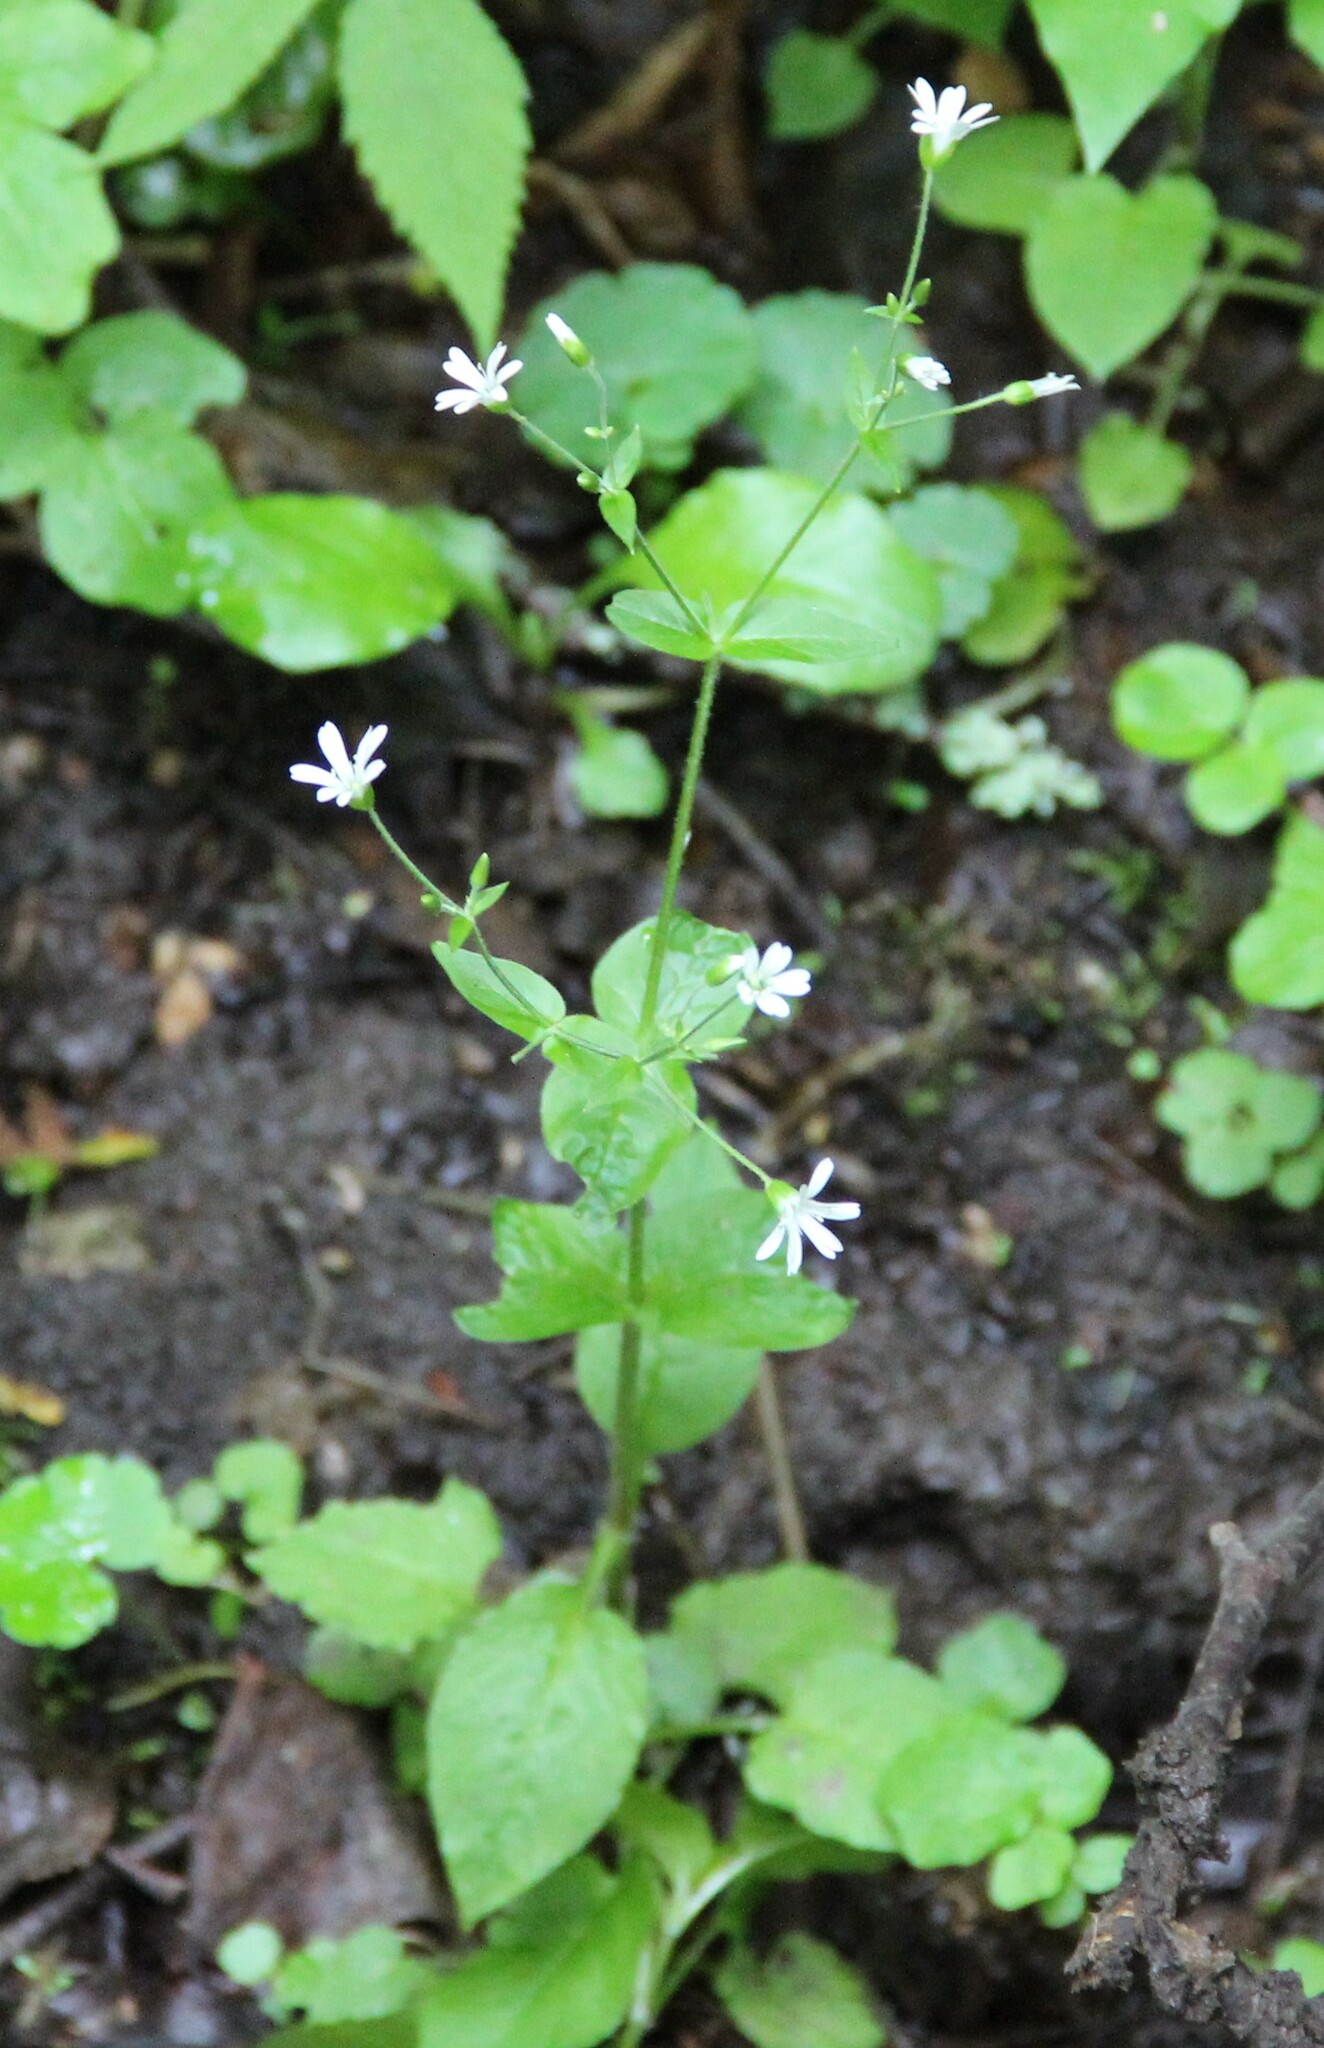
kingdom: Plantae
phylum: Tracheophyta
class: Magnoliopsida
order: Caryophyllales
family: Caryophyllaceae
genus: Stellaria
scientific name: Stellaria nemorum
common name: Wood stitchwort
